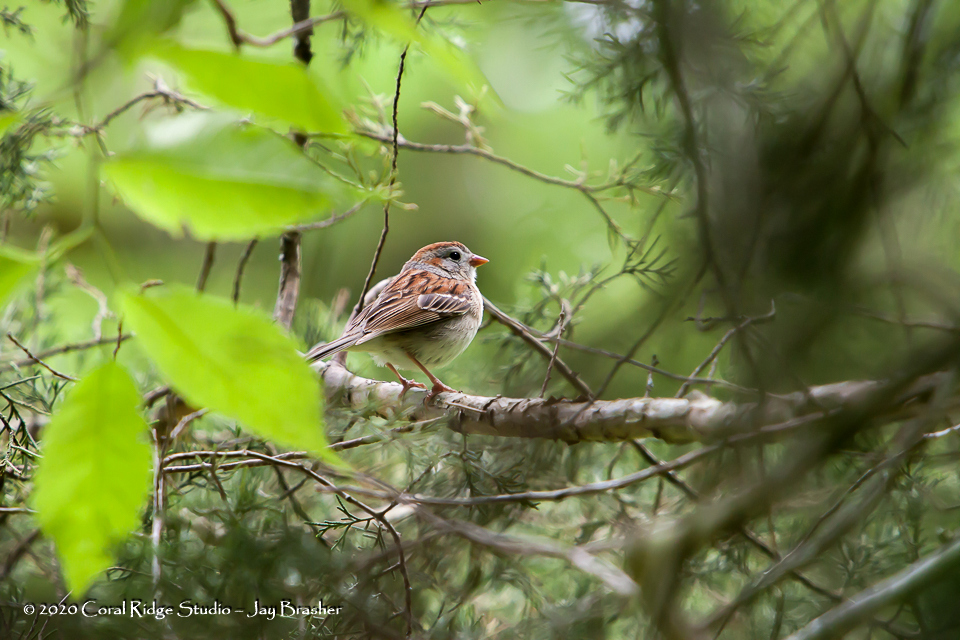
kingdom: Animalia
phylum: Chordata
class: Aves
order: Passeriformes
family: Passerellidae
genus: Spizella
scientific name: Spizella pusilla
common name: Field sparrow
